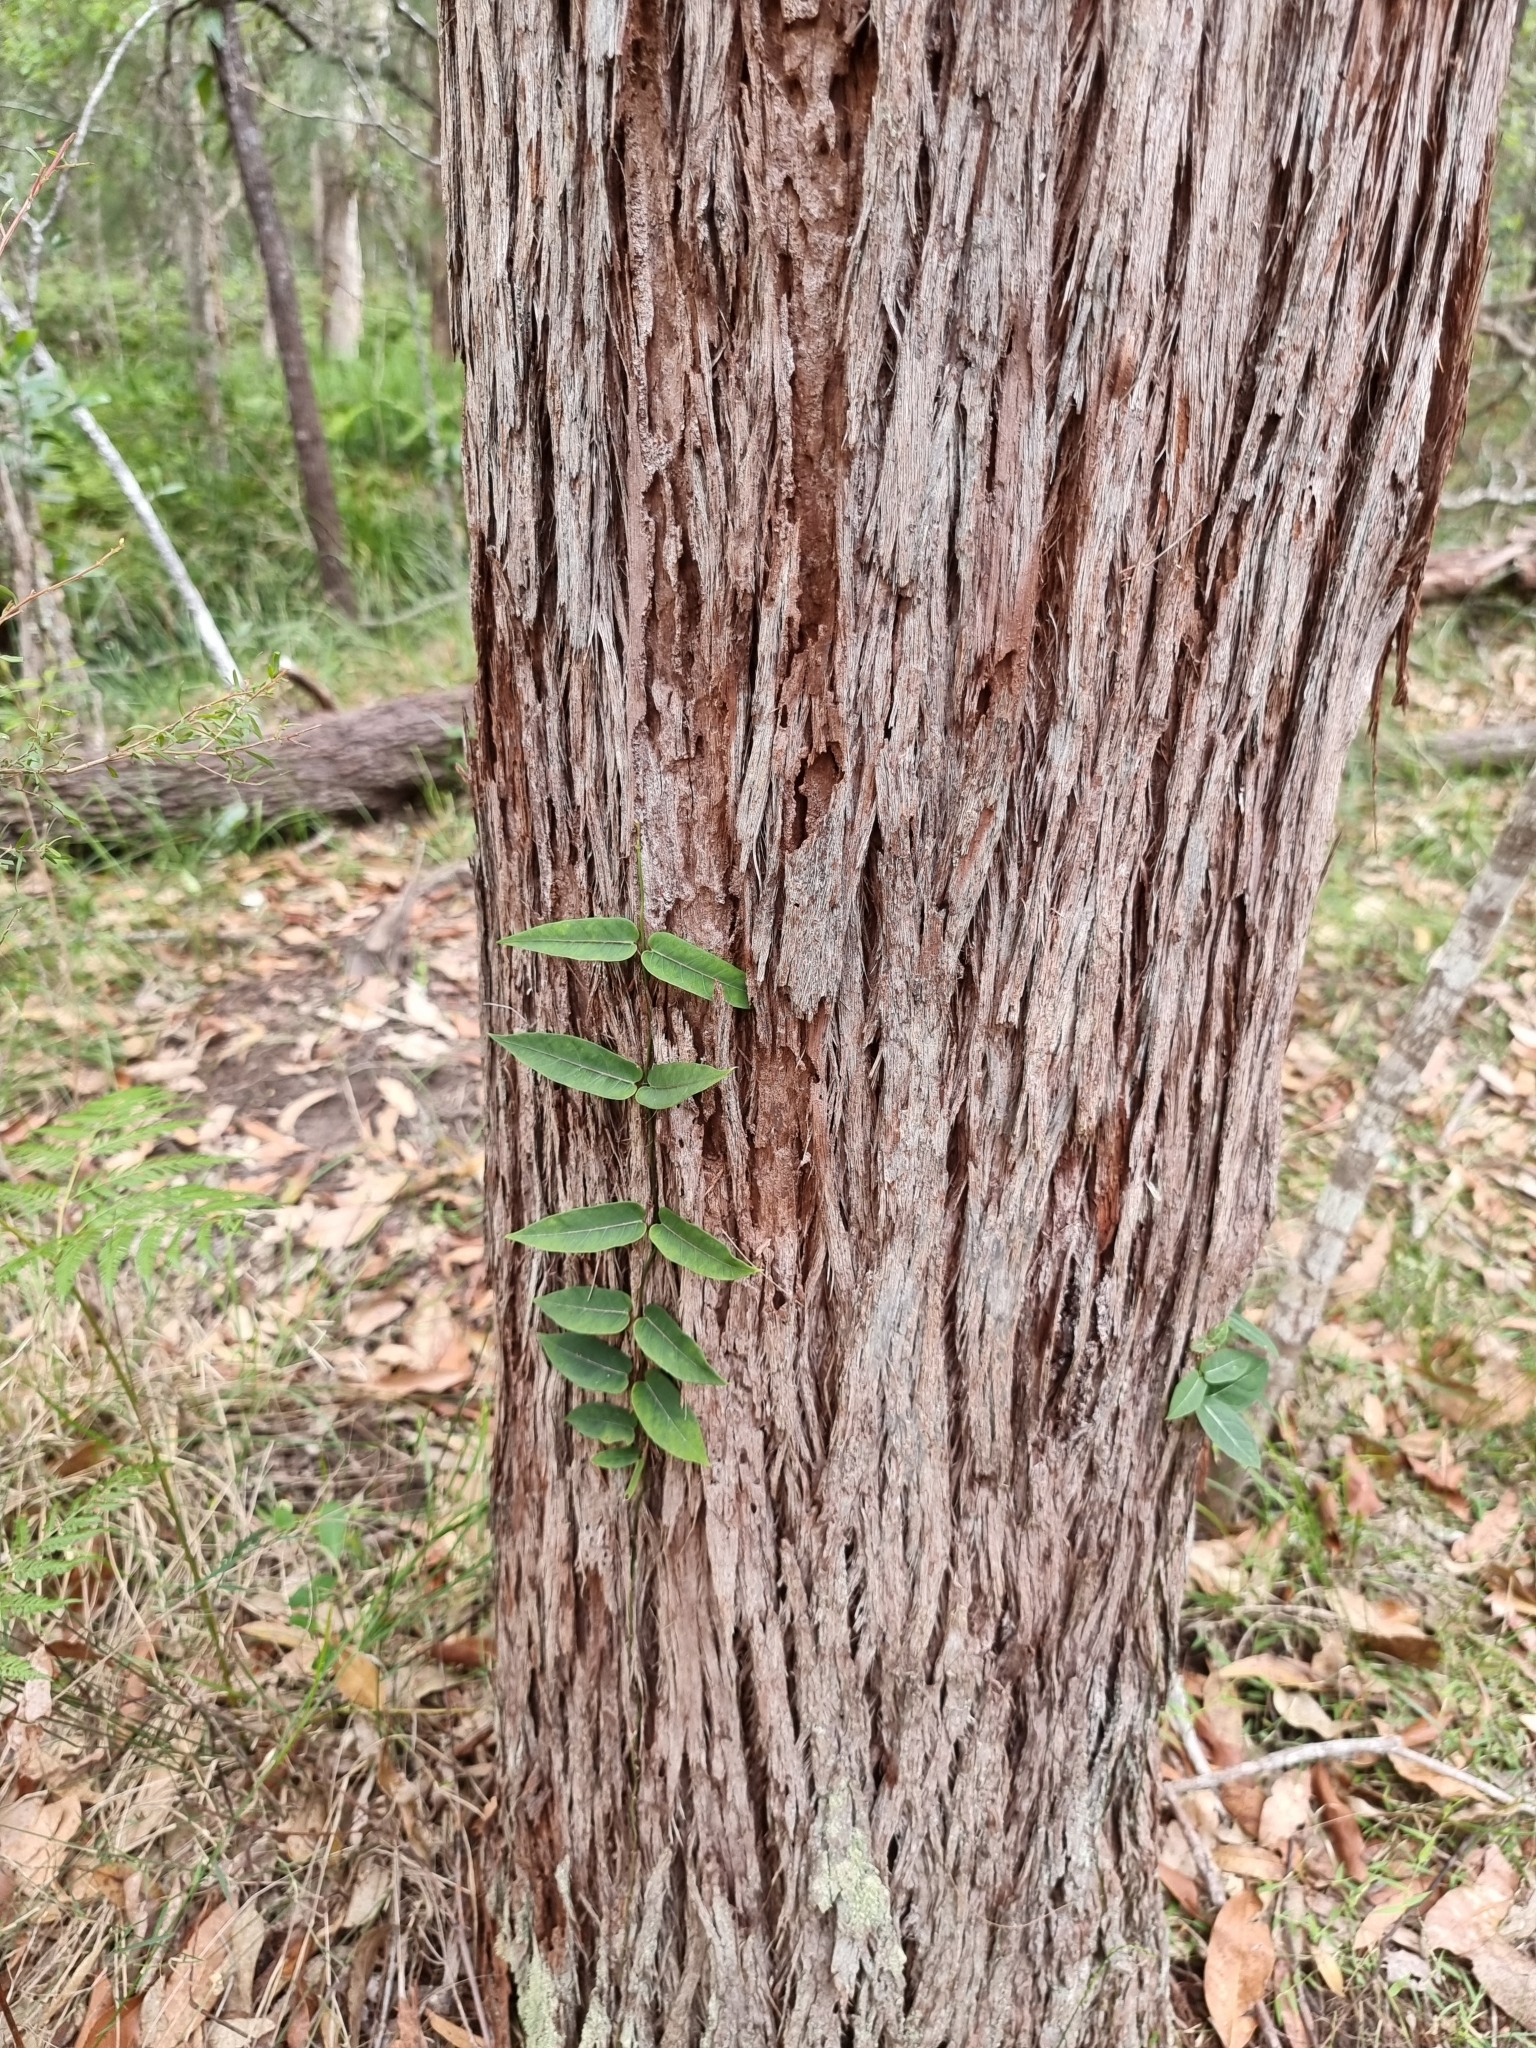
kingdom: Plantae
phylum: Tracheophyta
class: Magnoliopsida
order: Gentianales
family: Apocynaceae
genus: Parsonsia
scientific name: Parsonsia straminea
